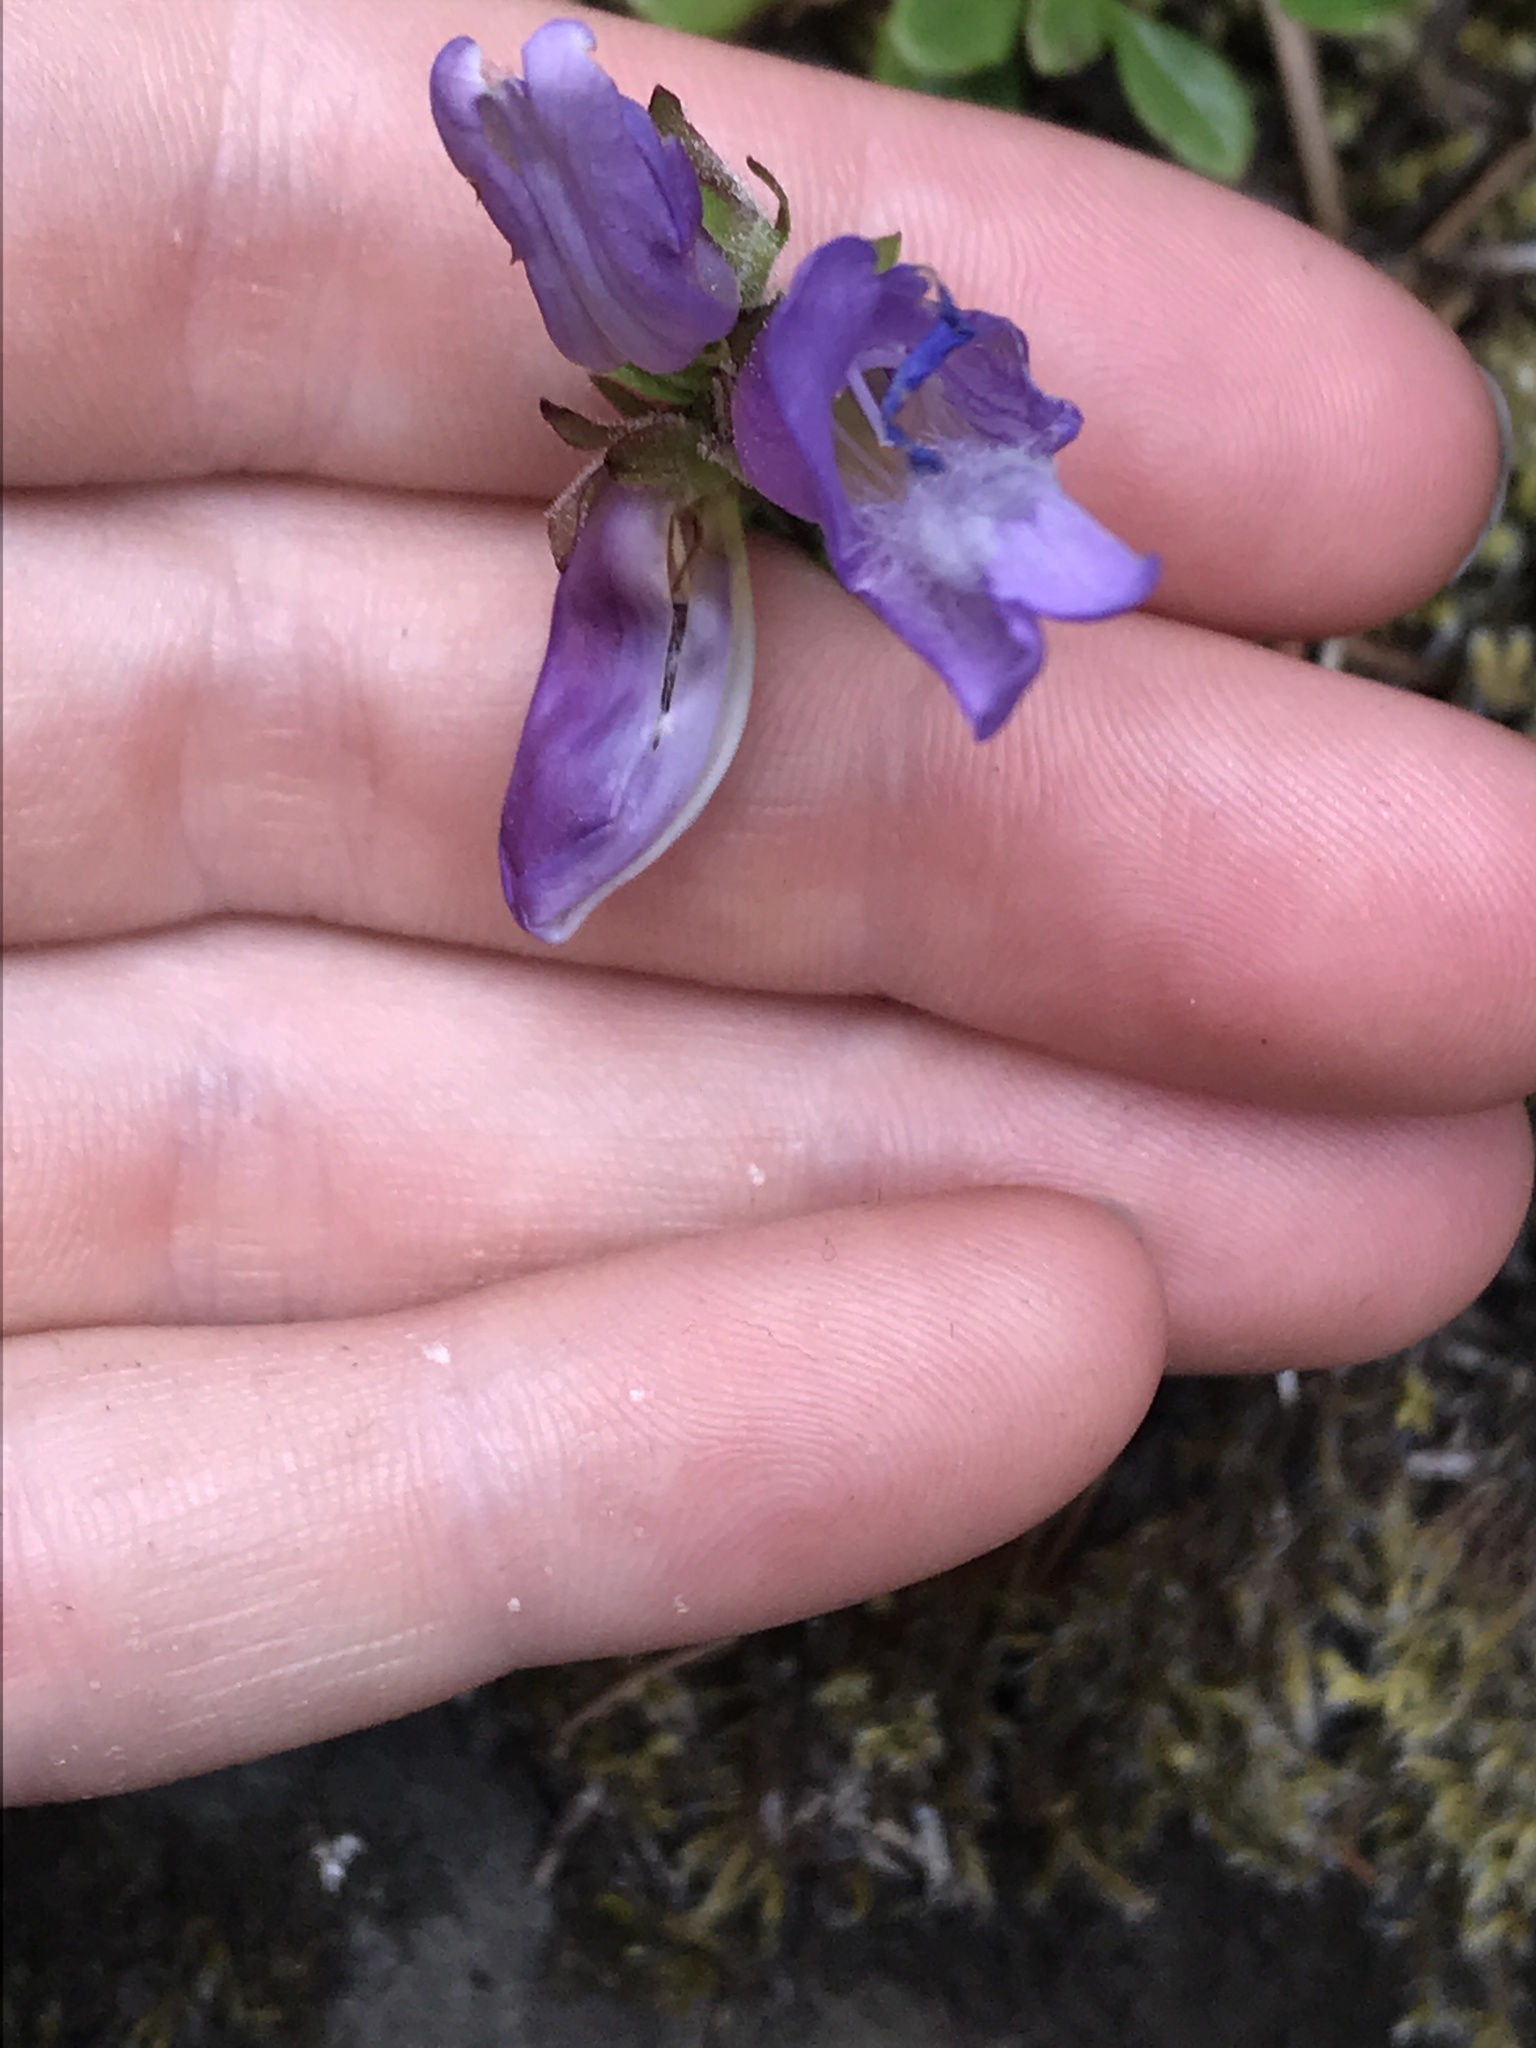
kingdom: Plantae
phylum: Tracheophyta
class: Magnoliopsida
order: Lamiales
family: Plantaginaceae
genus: Penstemon
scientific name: Penstemon davidsonii
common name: Davidson's penstemon
